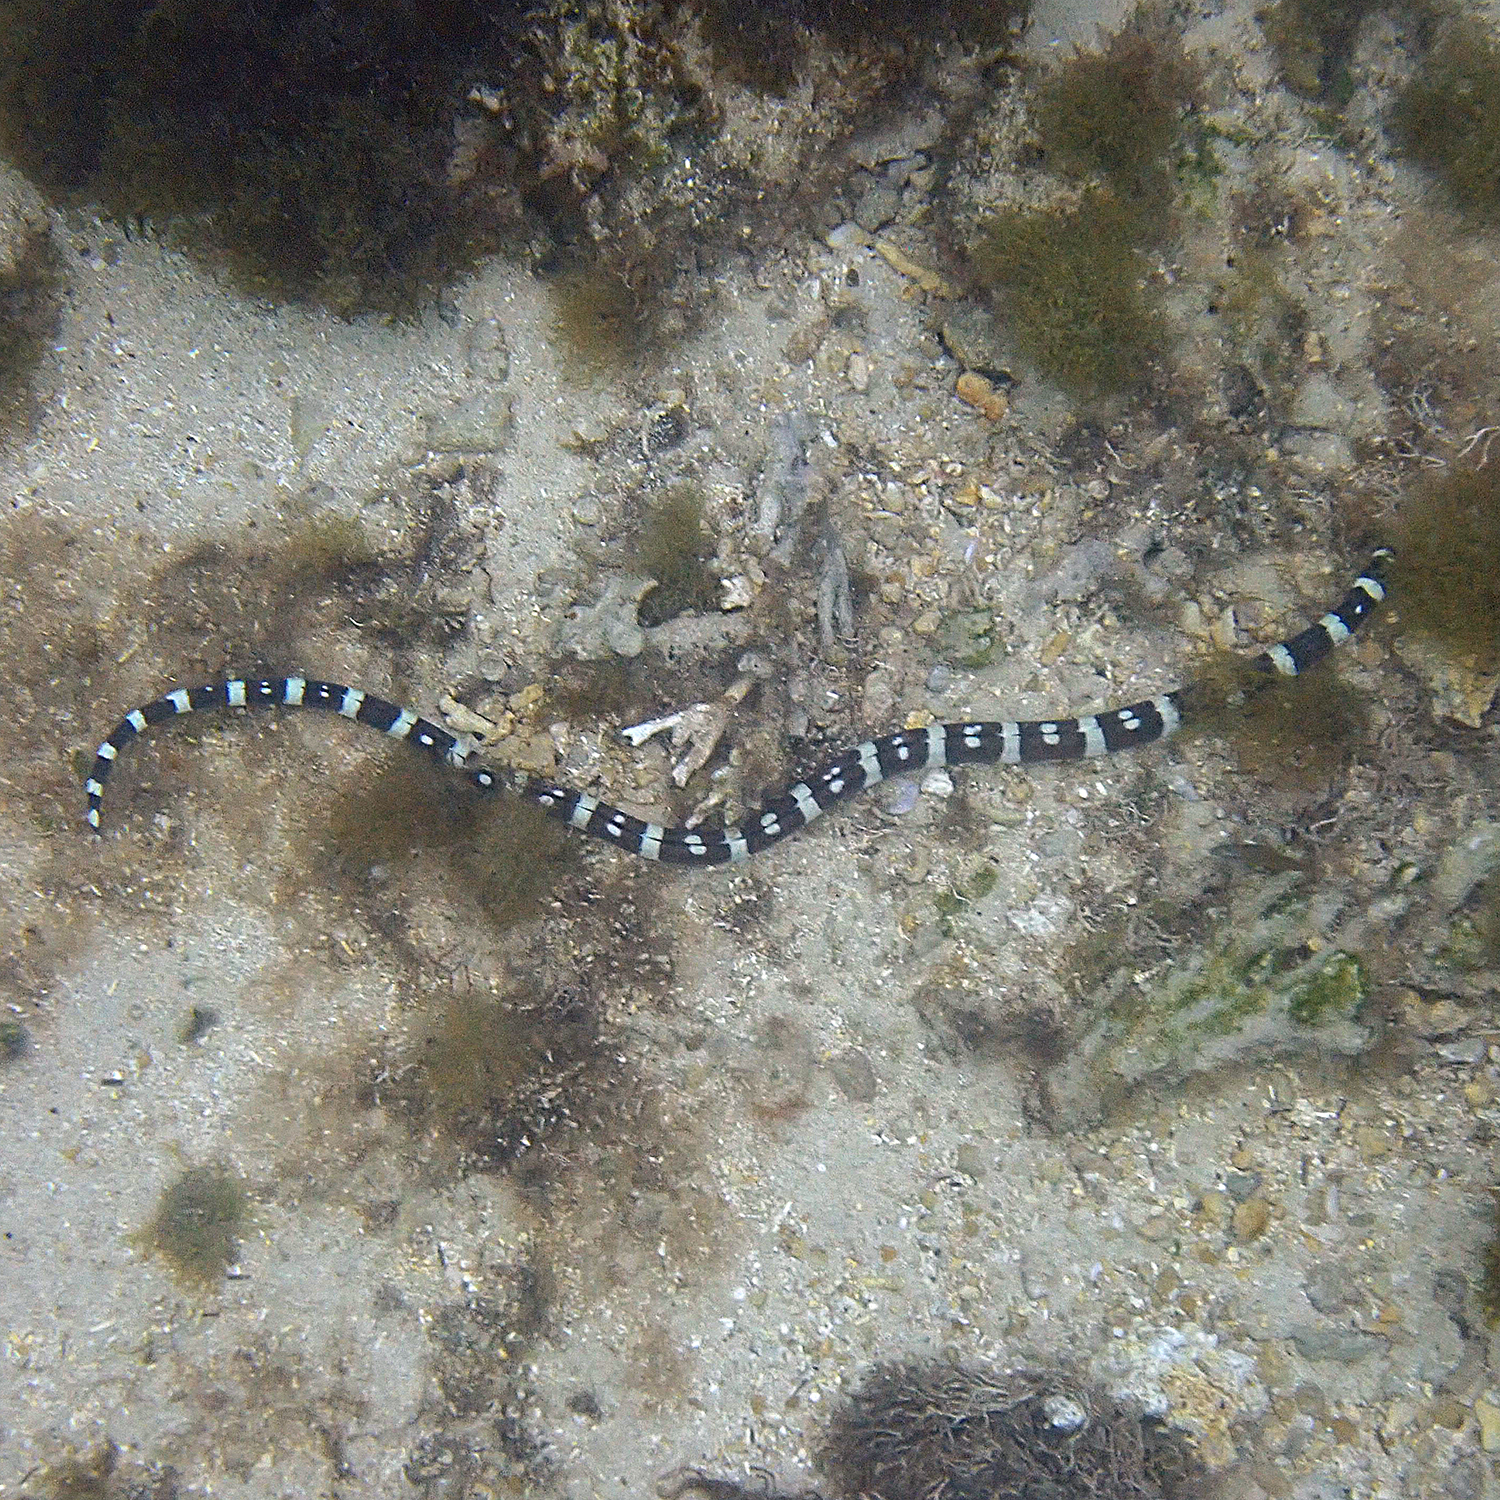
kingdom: Animalia
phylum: Chordata
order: Anguilliformes
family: Ophichthidae
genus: Leiuranus
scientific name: Leiuranus versicolor
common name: Convict snake eel
